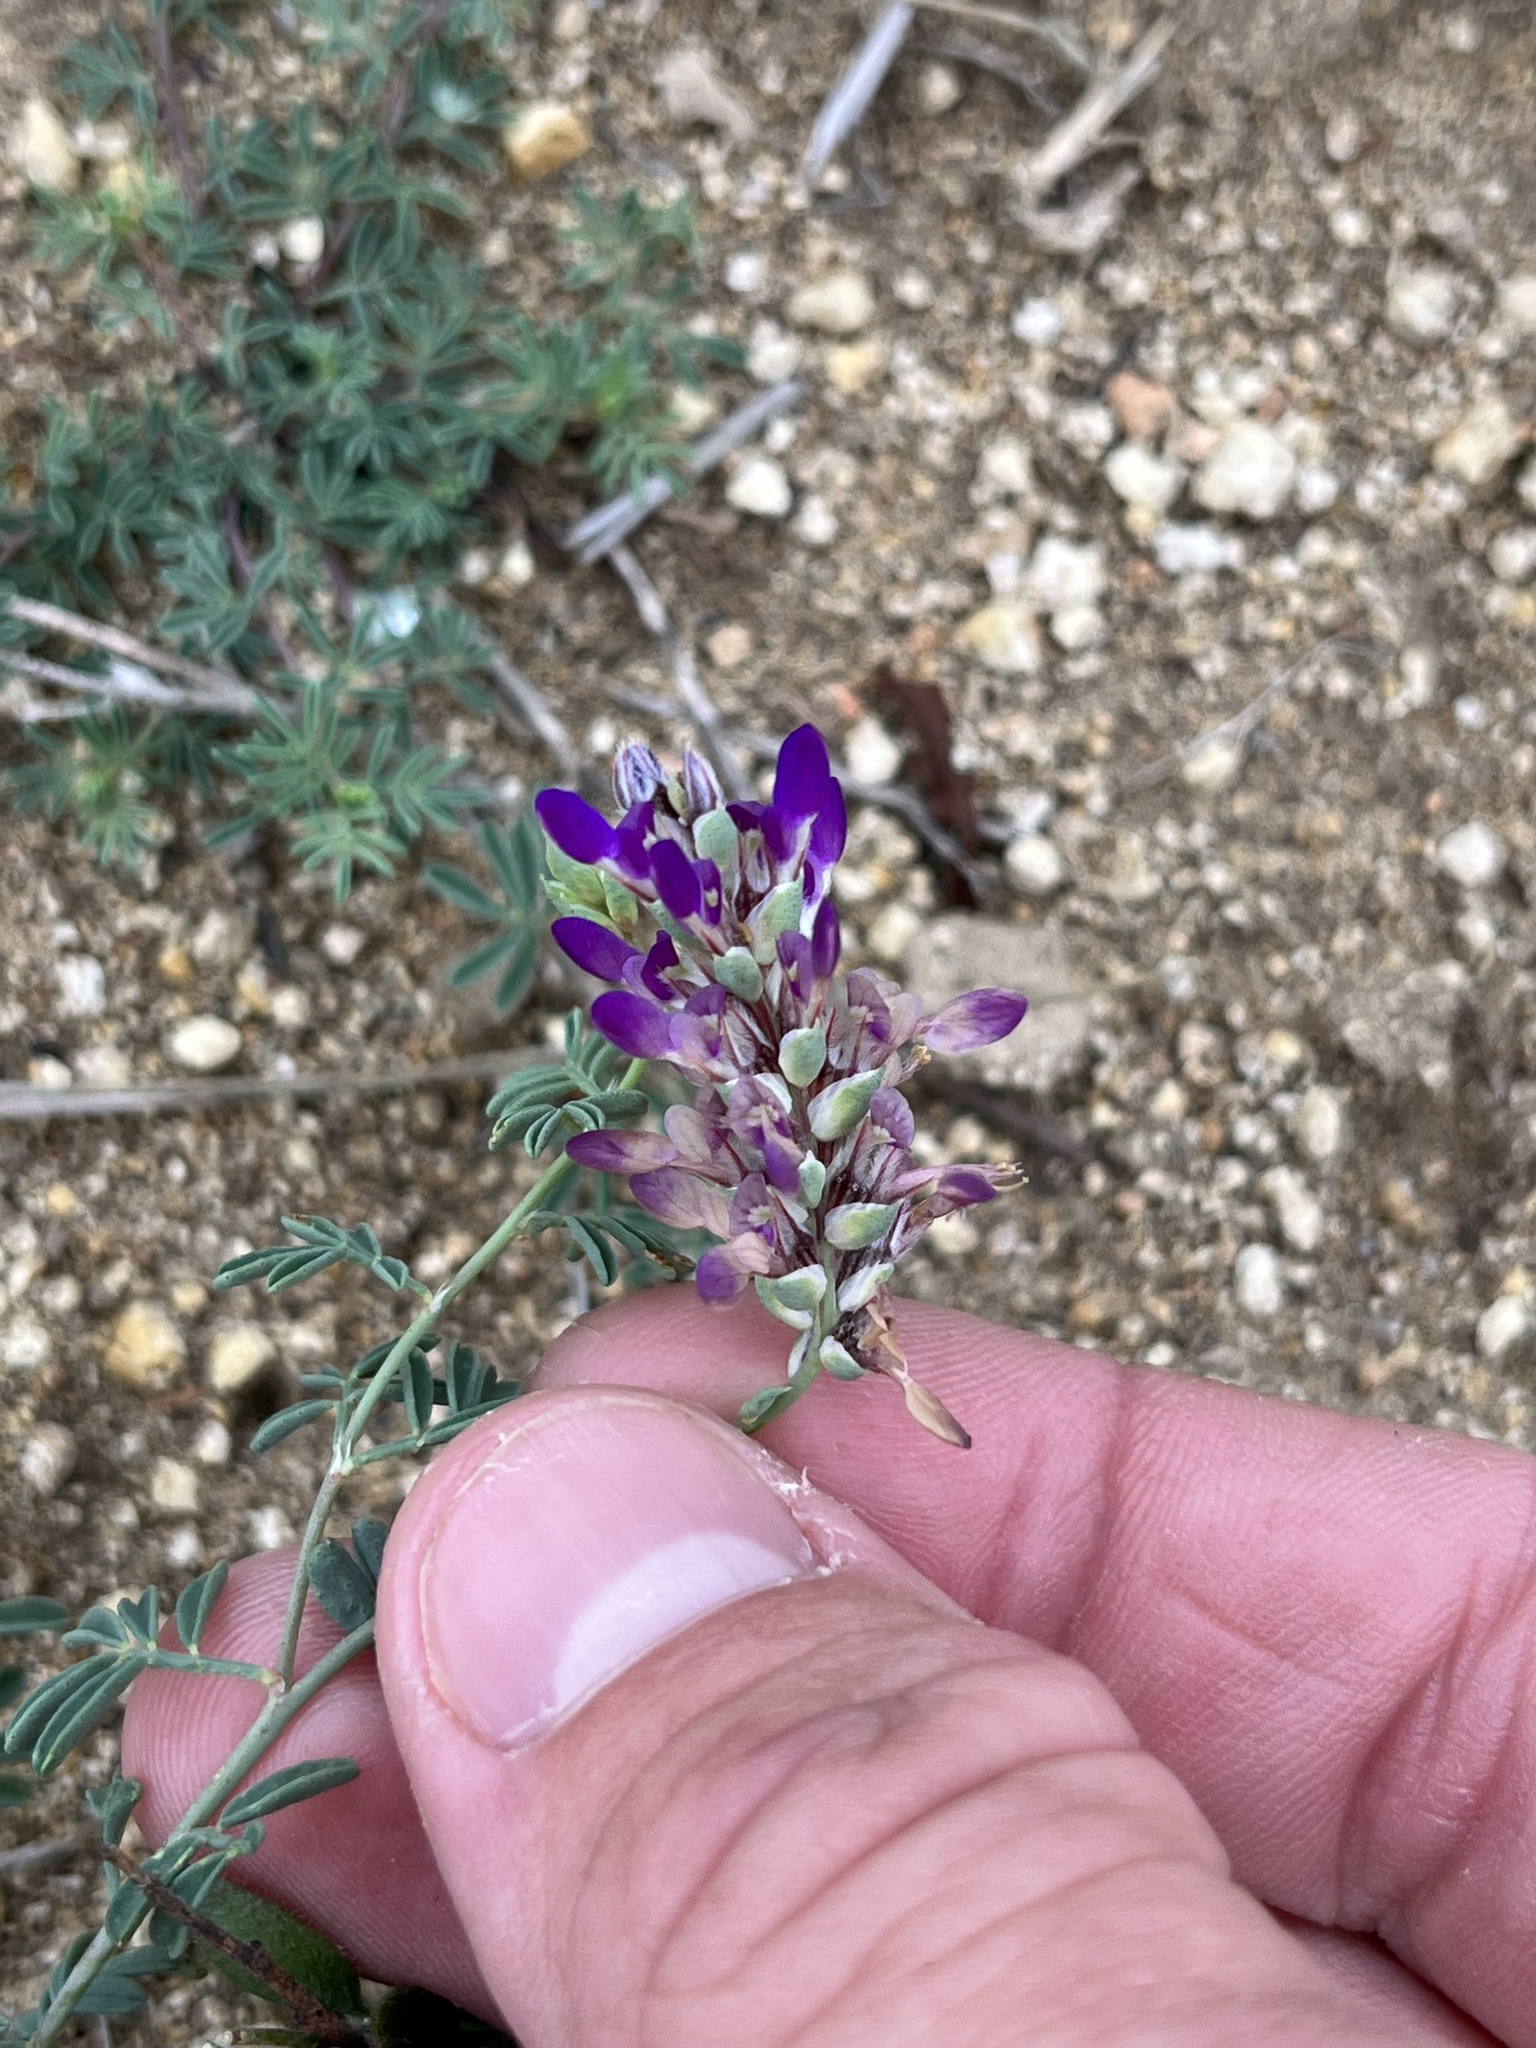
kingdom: Plantae
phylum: Tracheophyta
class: Magnoliopsida
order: Fabales
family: Fabaceae
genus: Dalea
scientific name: Dalea pogonathera
